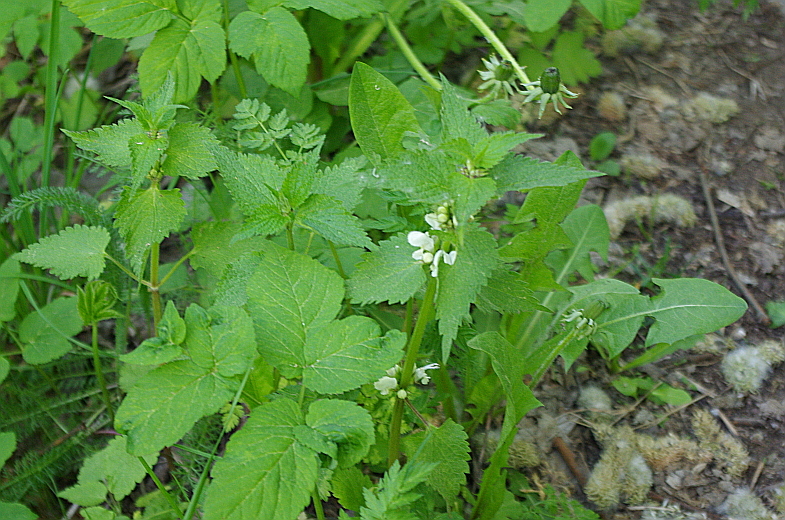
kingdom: Plantae
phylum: Tracheophyta
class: Magnoliopsida
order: Lamiales
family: Lamiaceae
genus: Lamium
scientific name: Lamium album
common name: White dead-nettle
